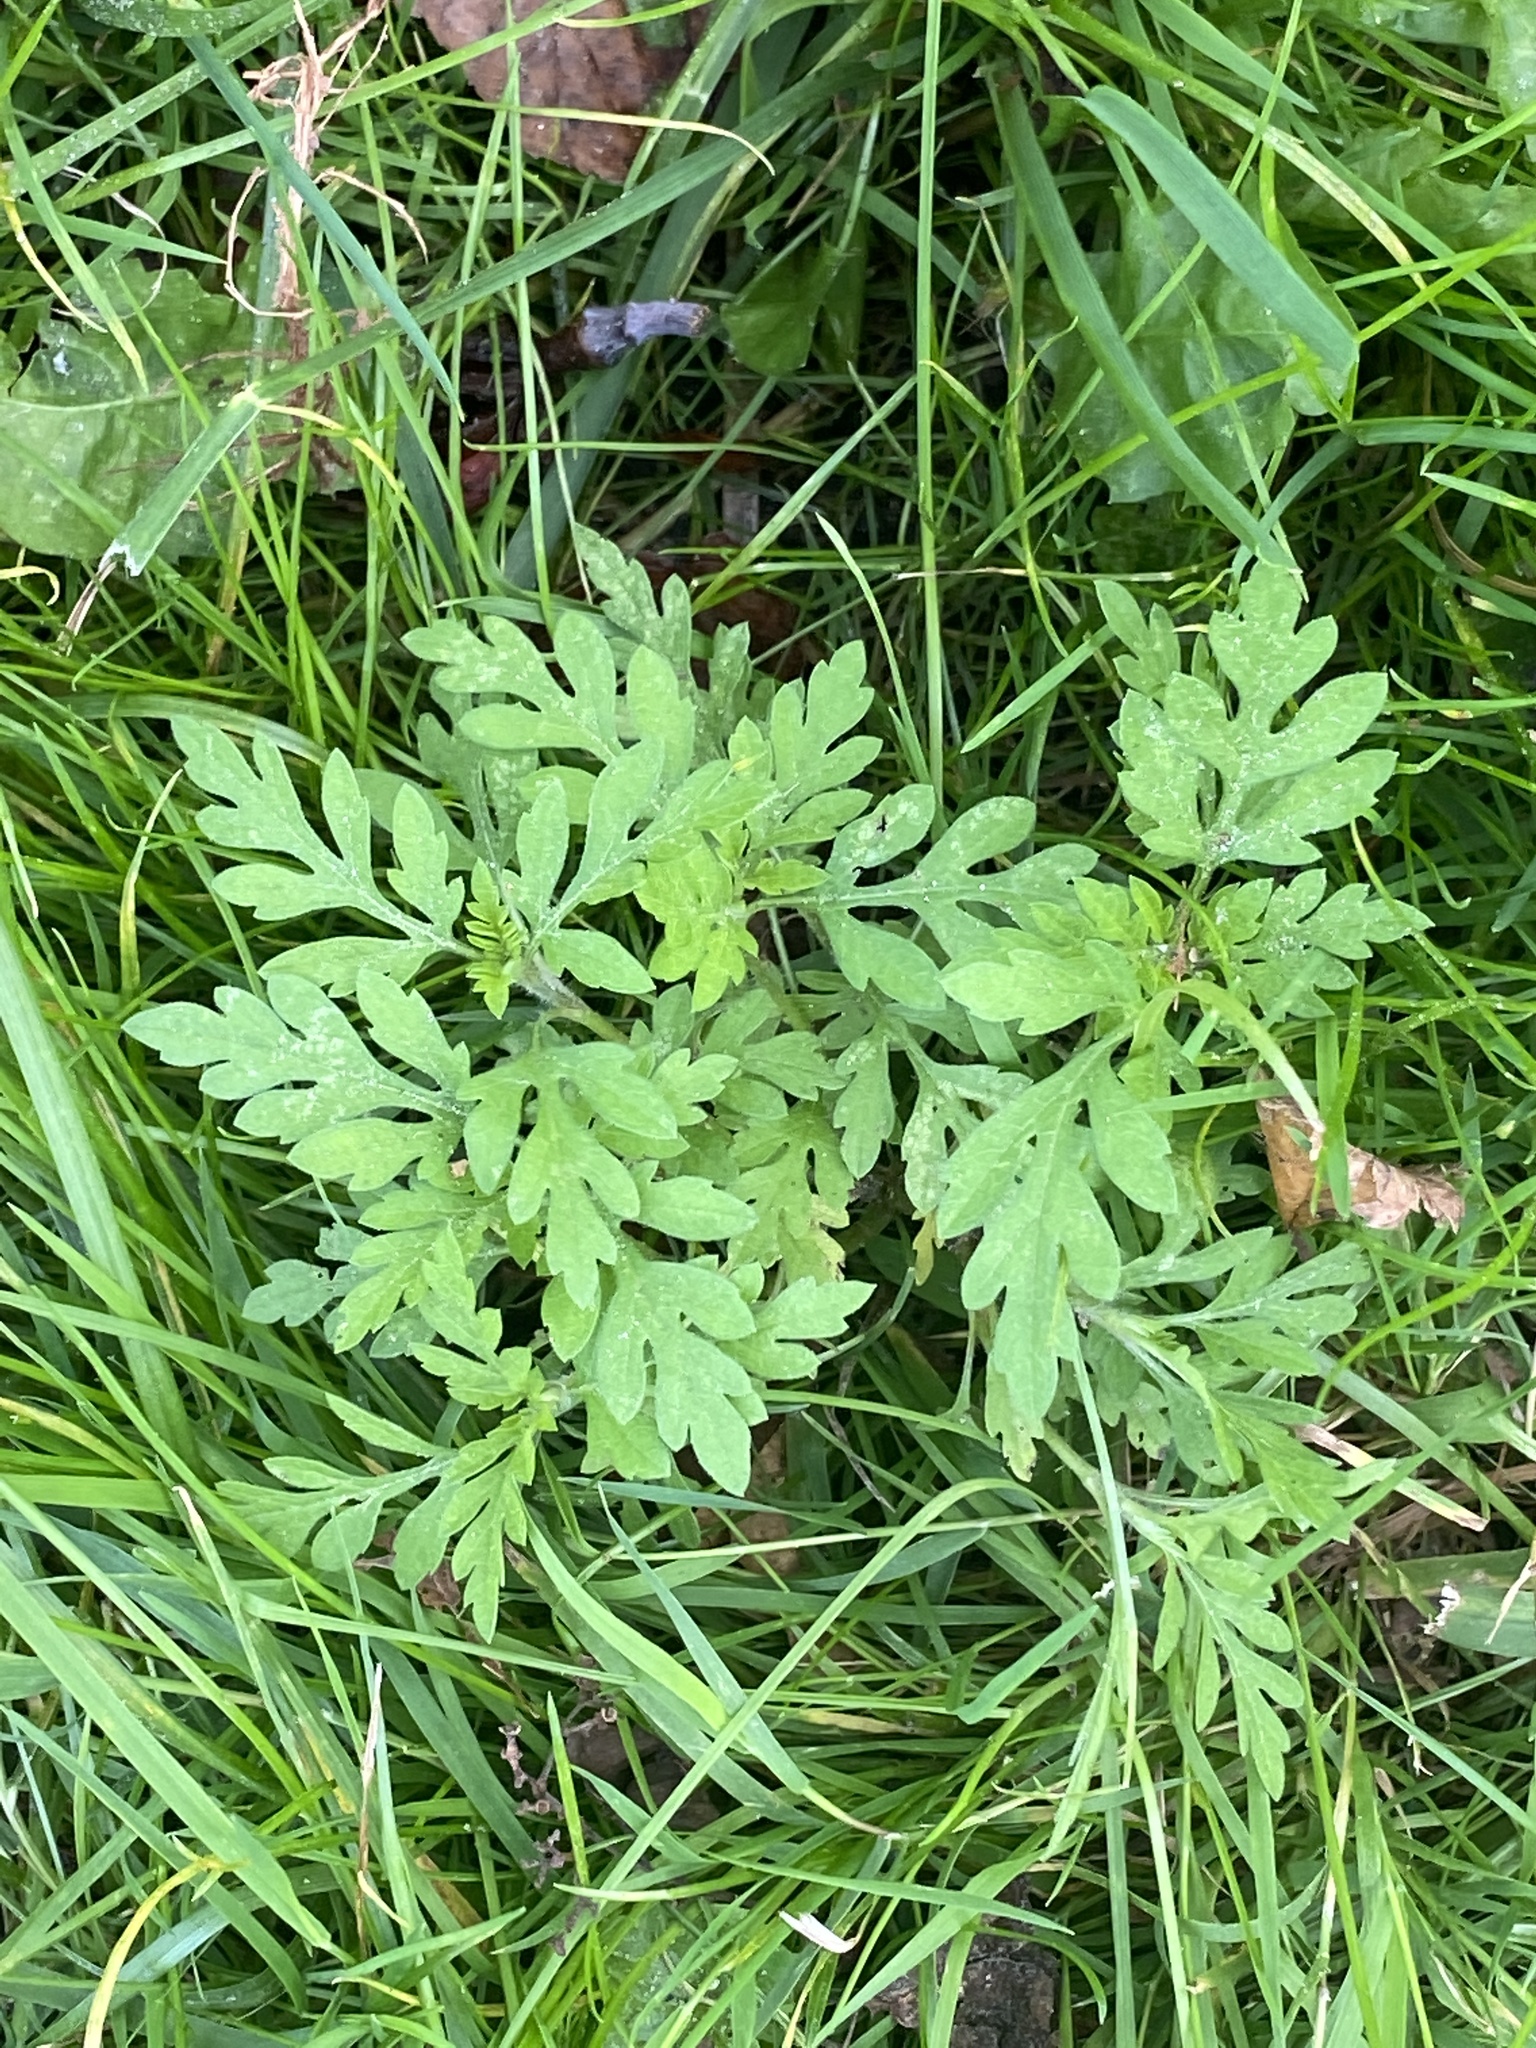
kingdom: Plantae
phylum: Tracheophyta
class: Magnoliopsida
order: Asterales
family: Asteraceae
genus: Ambrosia
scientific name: Ambrosia artemisiifolia
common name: Annual ragweed
